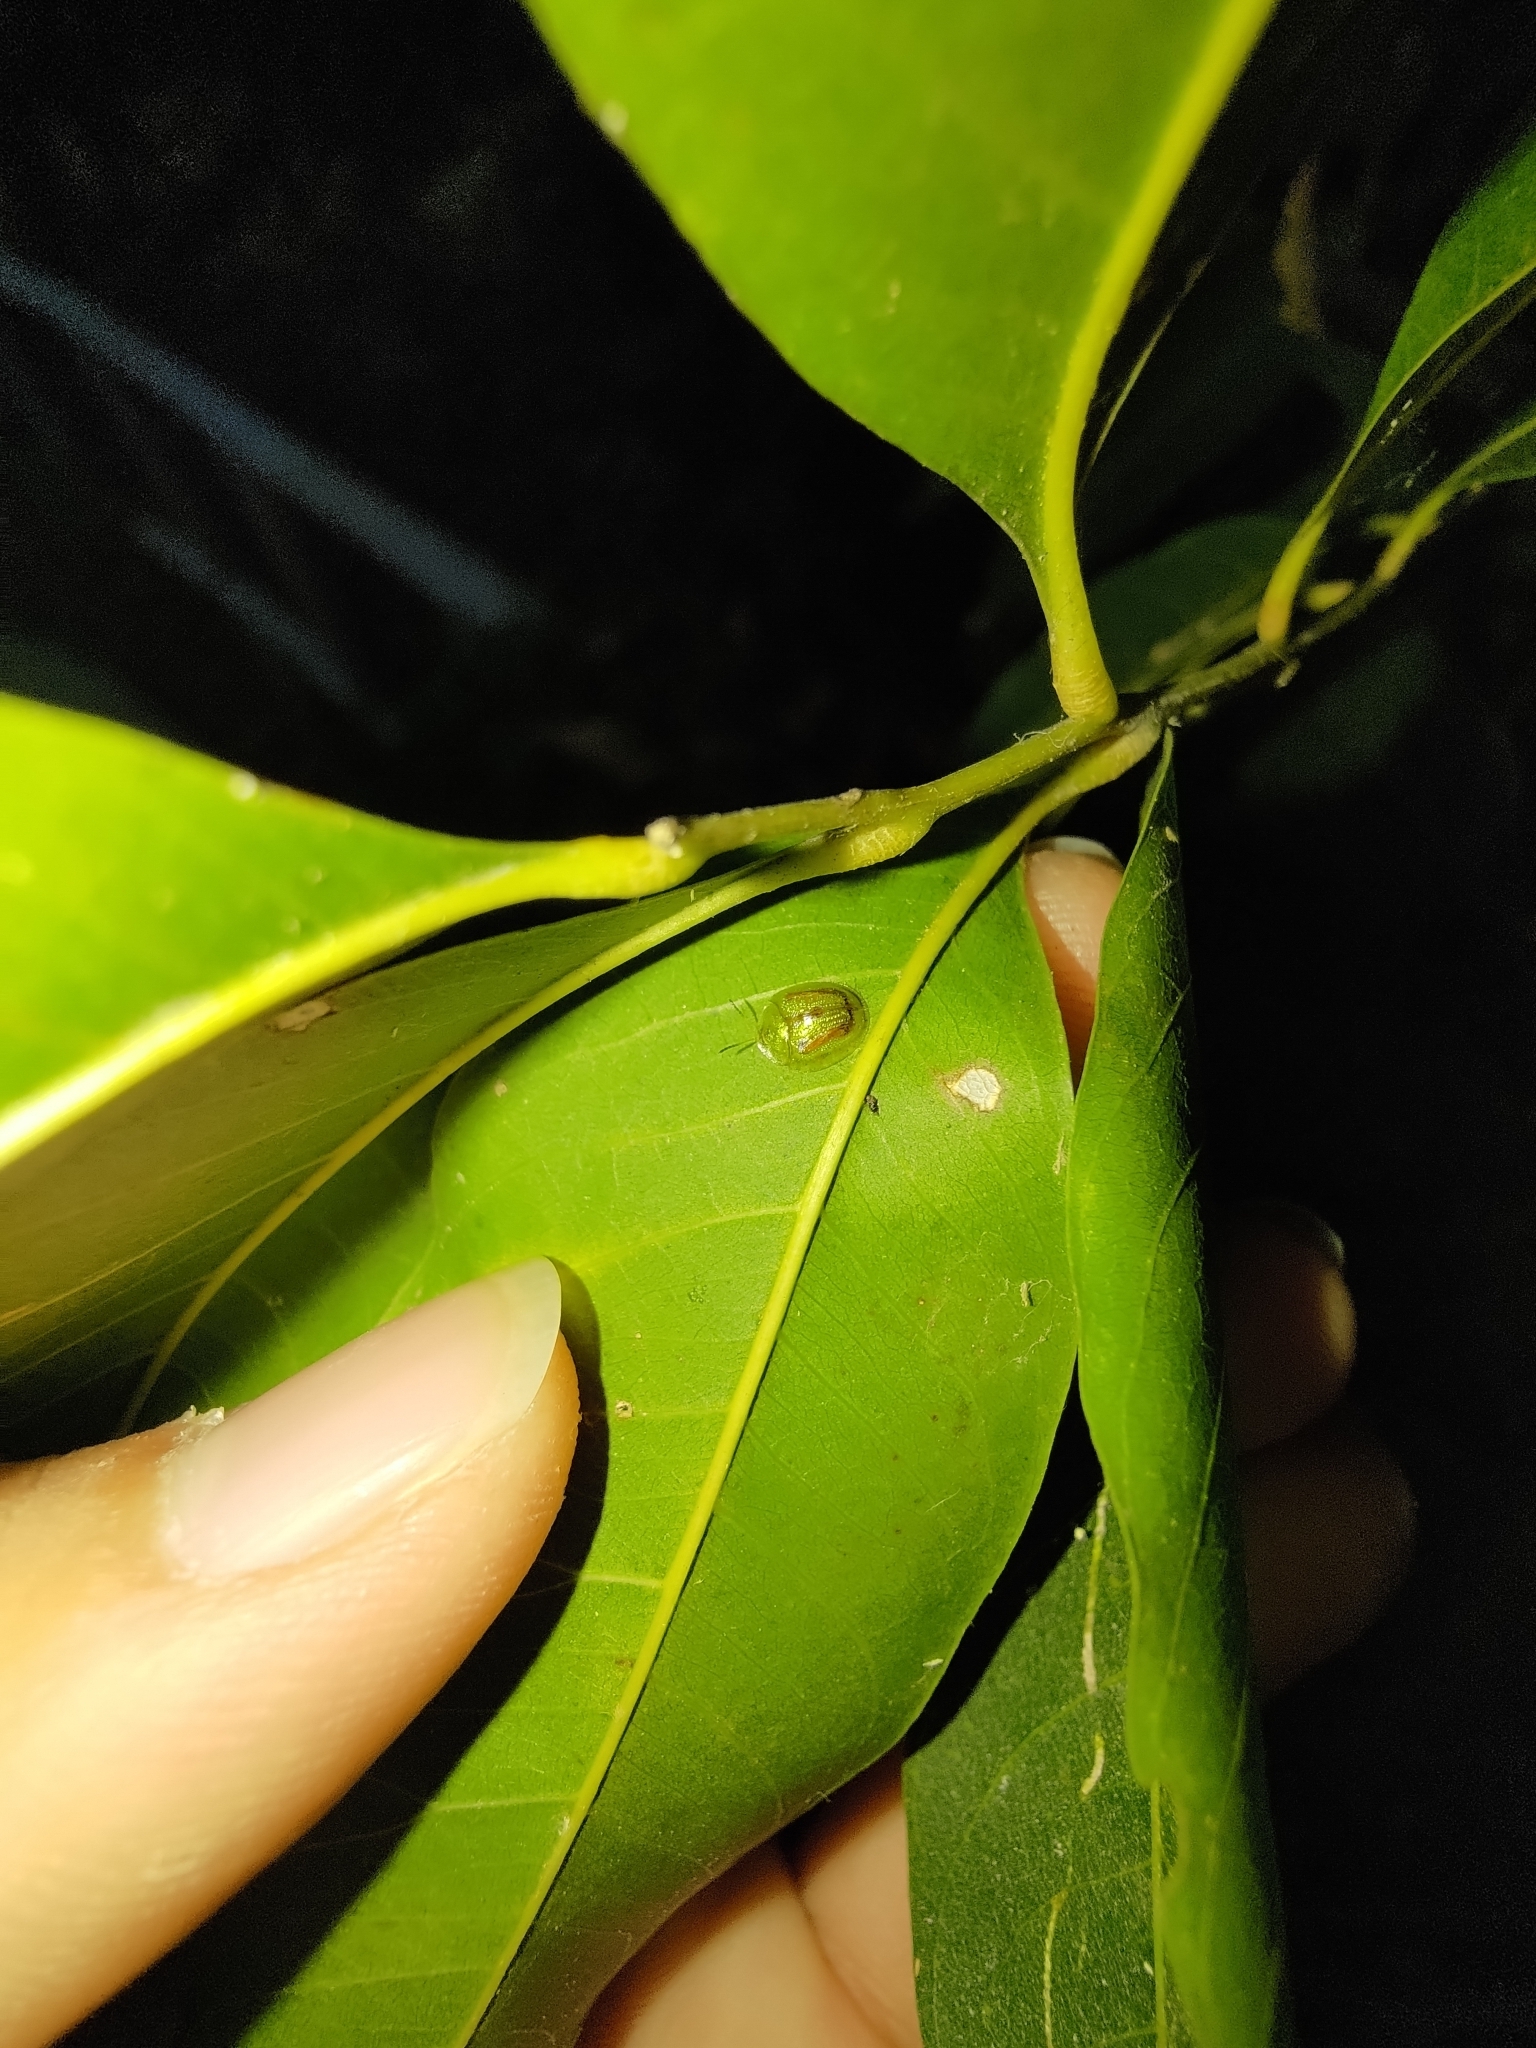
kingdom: Animalia
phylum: Arthropoda
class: Insecta
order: Coleoptera
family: Chrysomelidae
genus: Cassida
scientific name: Cassida circumdata
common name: Tortoise beetle
